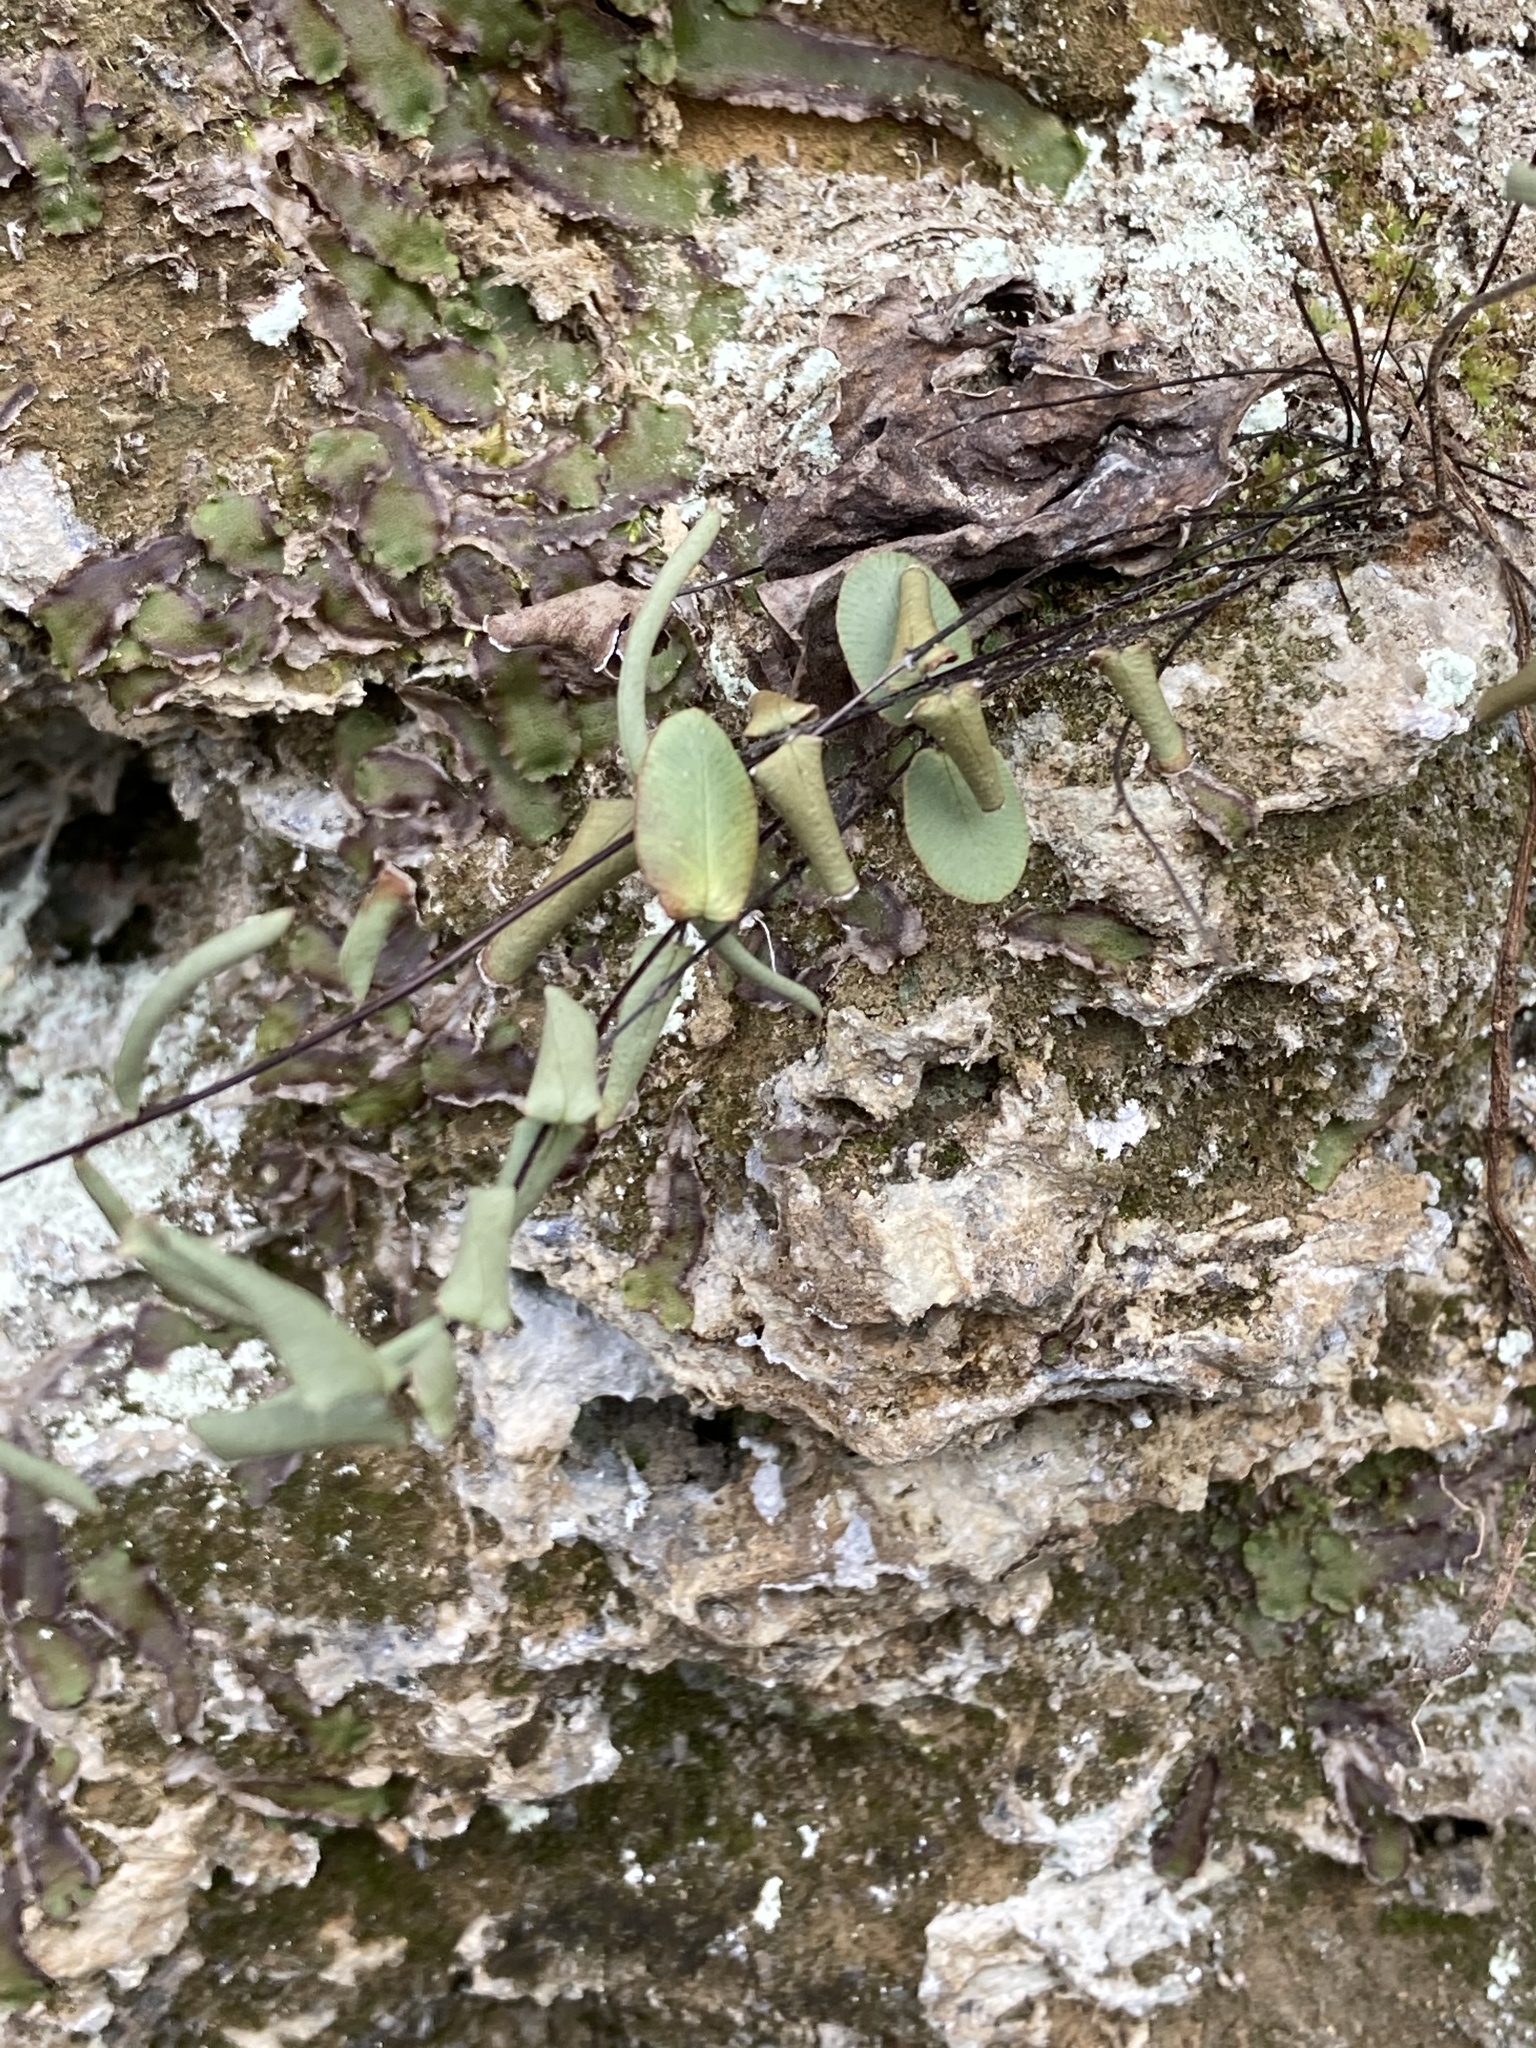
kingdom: Plantae
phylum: Tracheophyta
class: Polypodiopsida
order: Polypodiales
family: Pteridaceae
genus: Pellaea
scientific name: Pellaea atropurpurea
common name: Hairy cliffbrake
